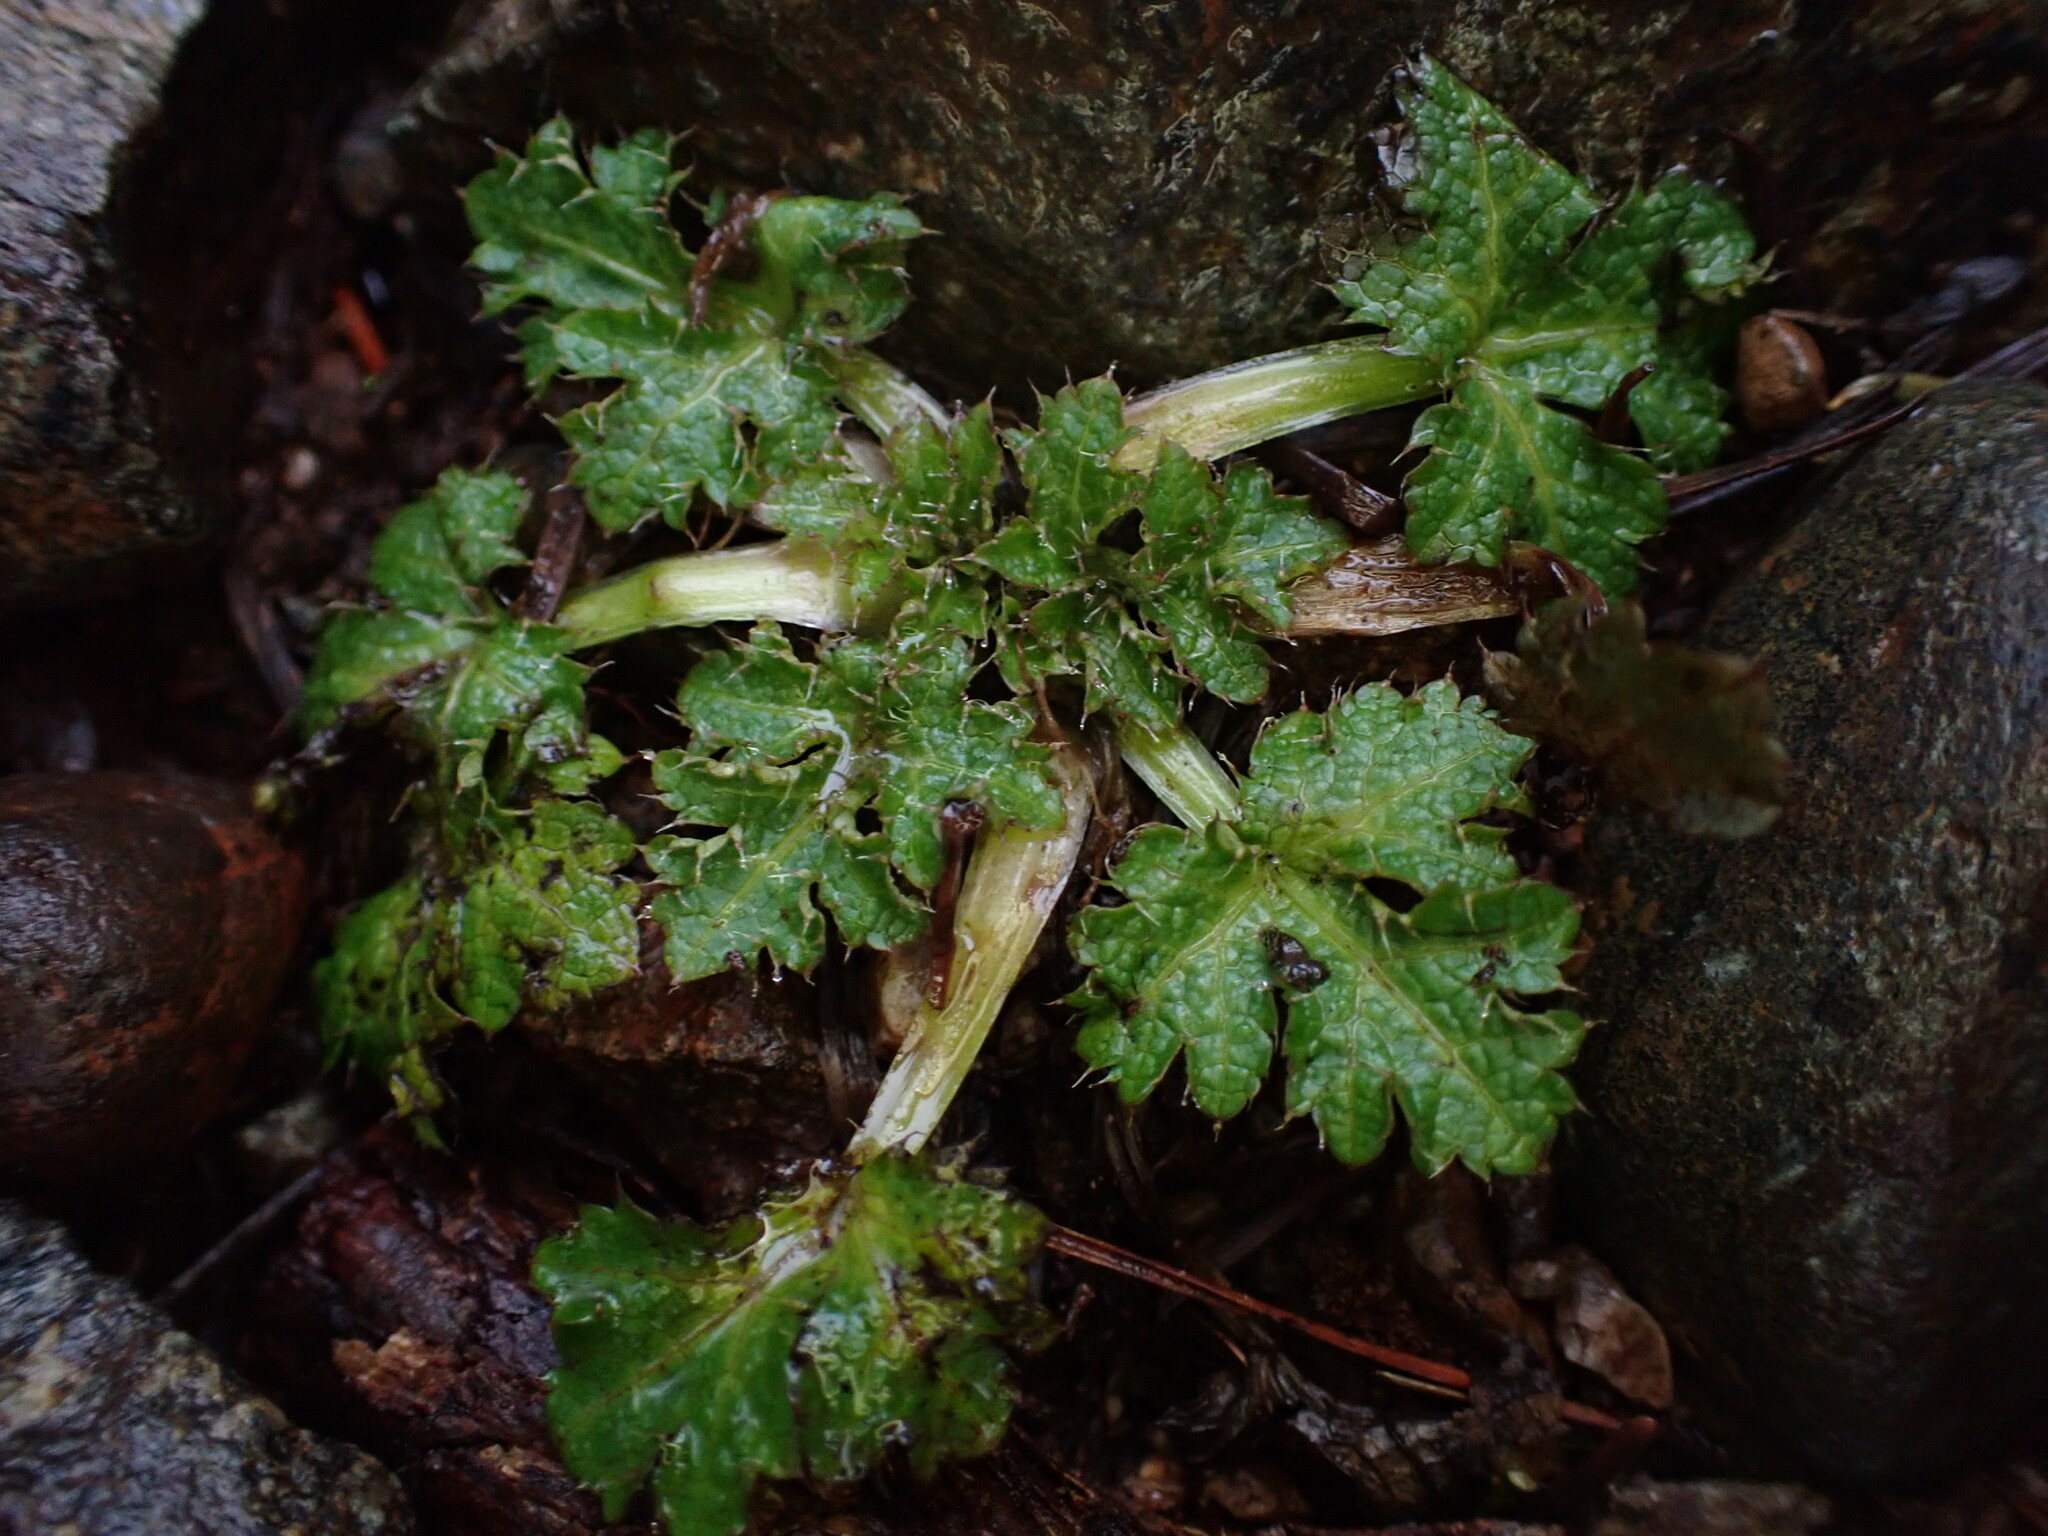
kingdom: Plantae
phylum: Tracheophyta
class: Magnoliopsida
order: Apiales
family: Apiaceae
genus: Sanicula
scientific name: Sanicula crassicaulis
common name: Western snakeroot
